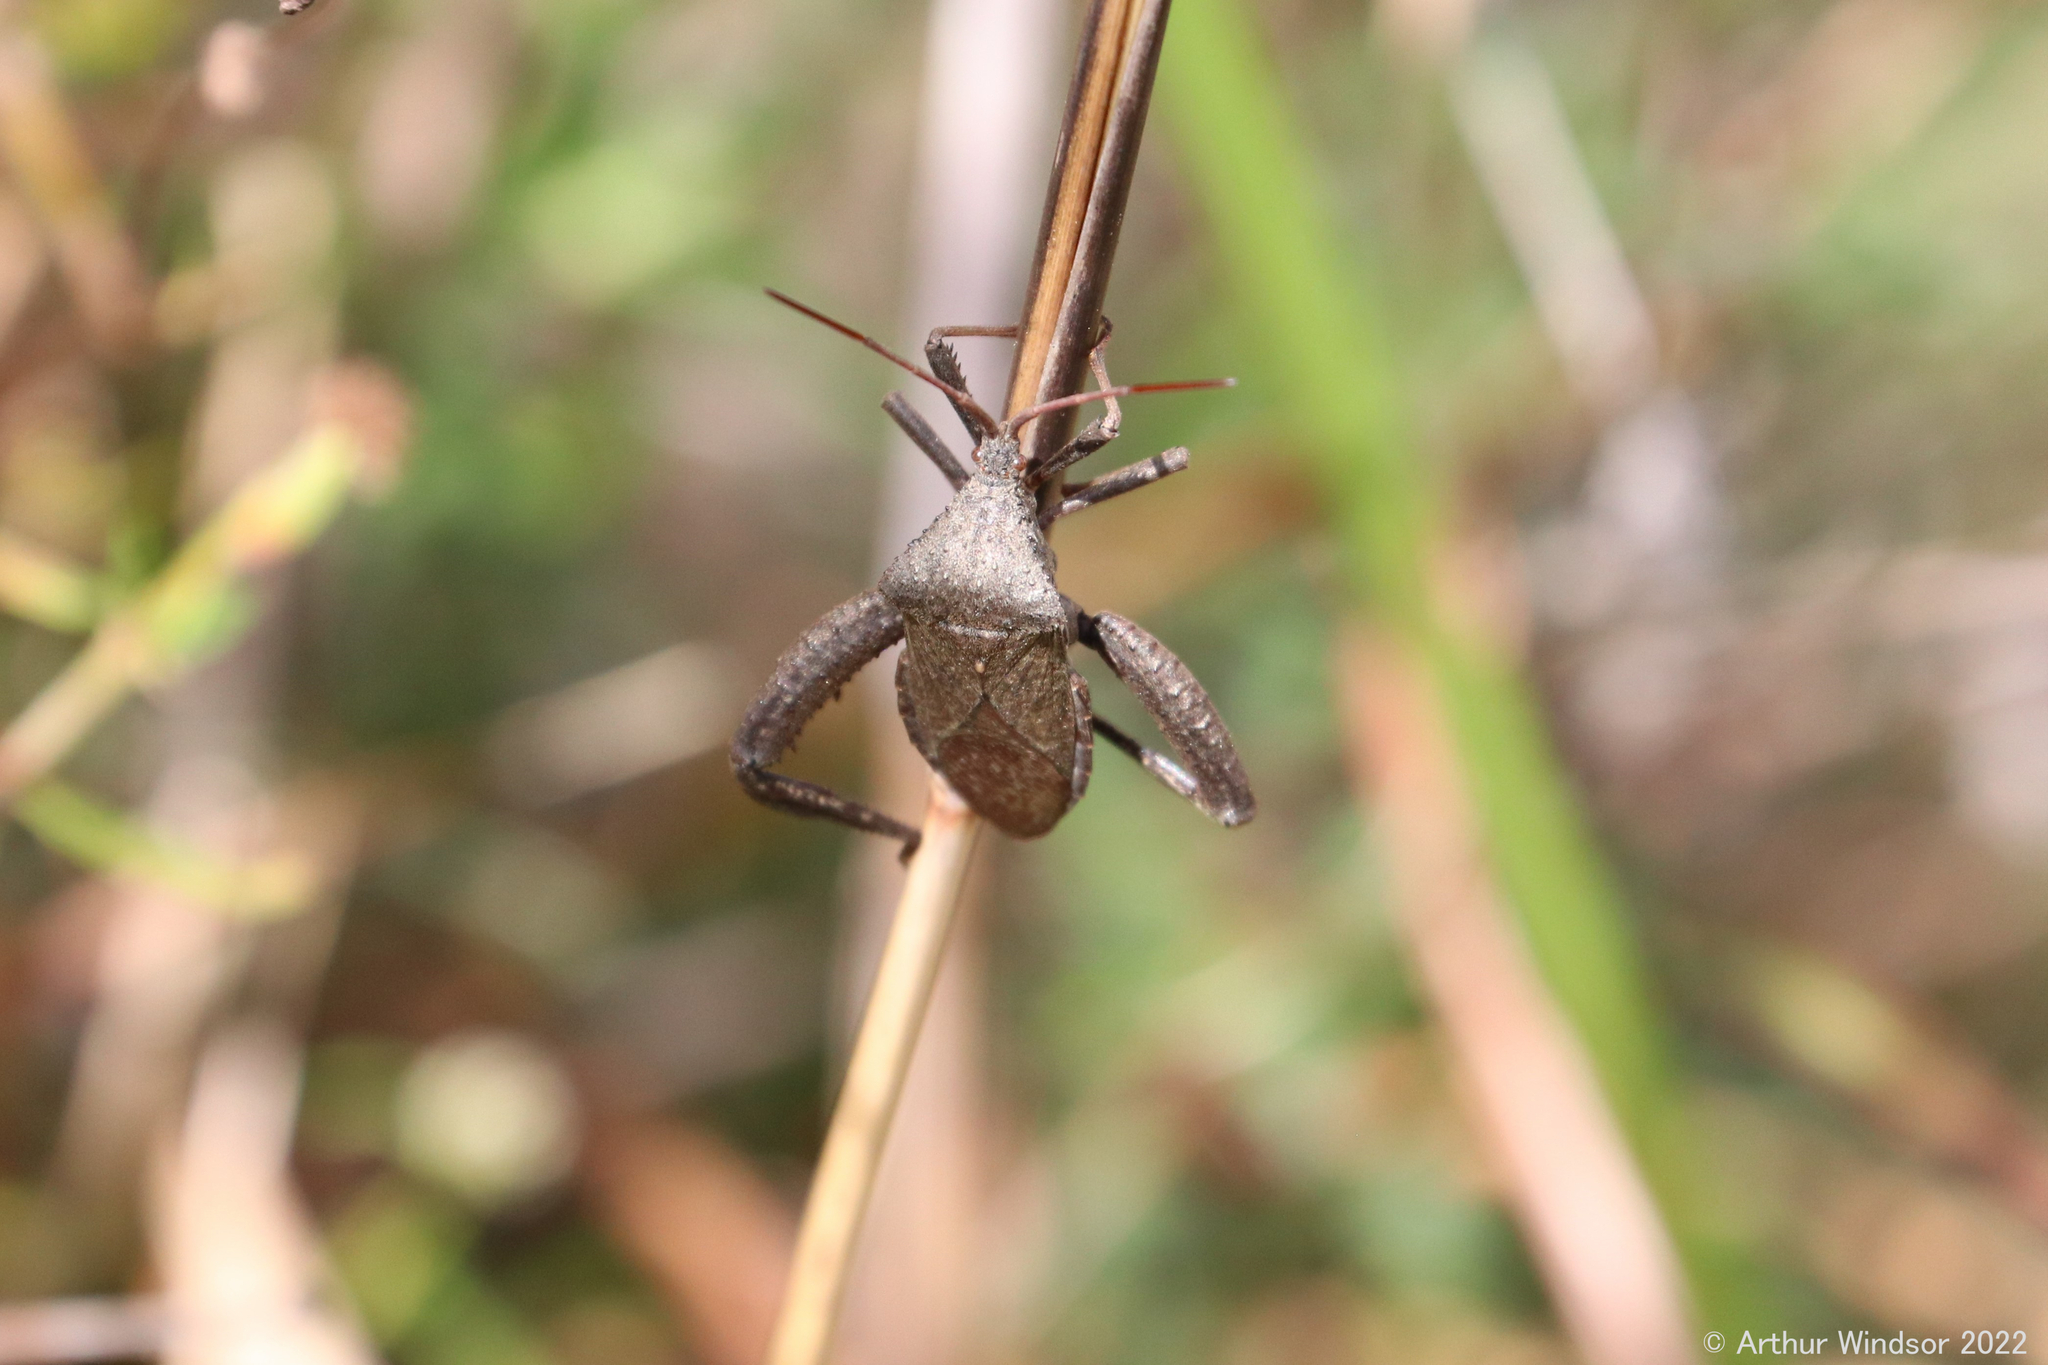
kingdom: Animalia
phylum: Arthropoda
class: Insecta
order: Hemiptera
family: Coreidae
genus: Acanthocephala
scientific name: Acanthocephala femorata
